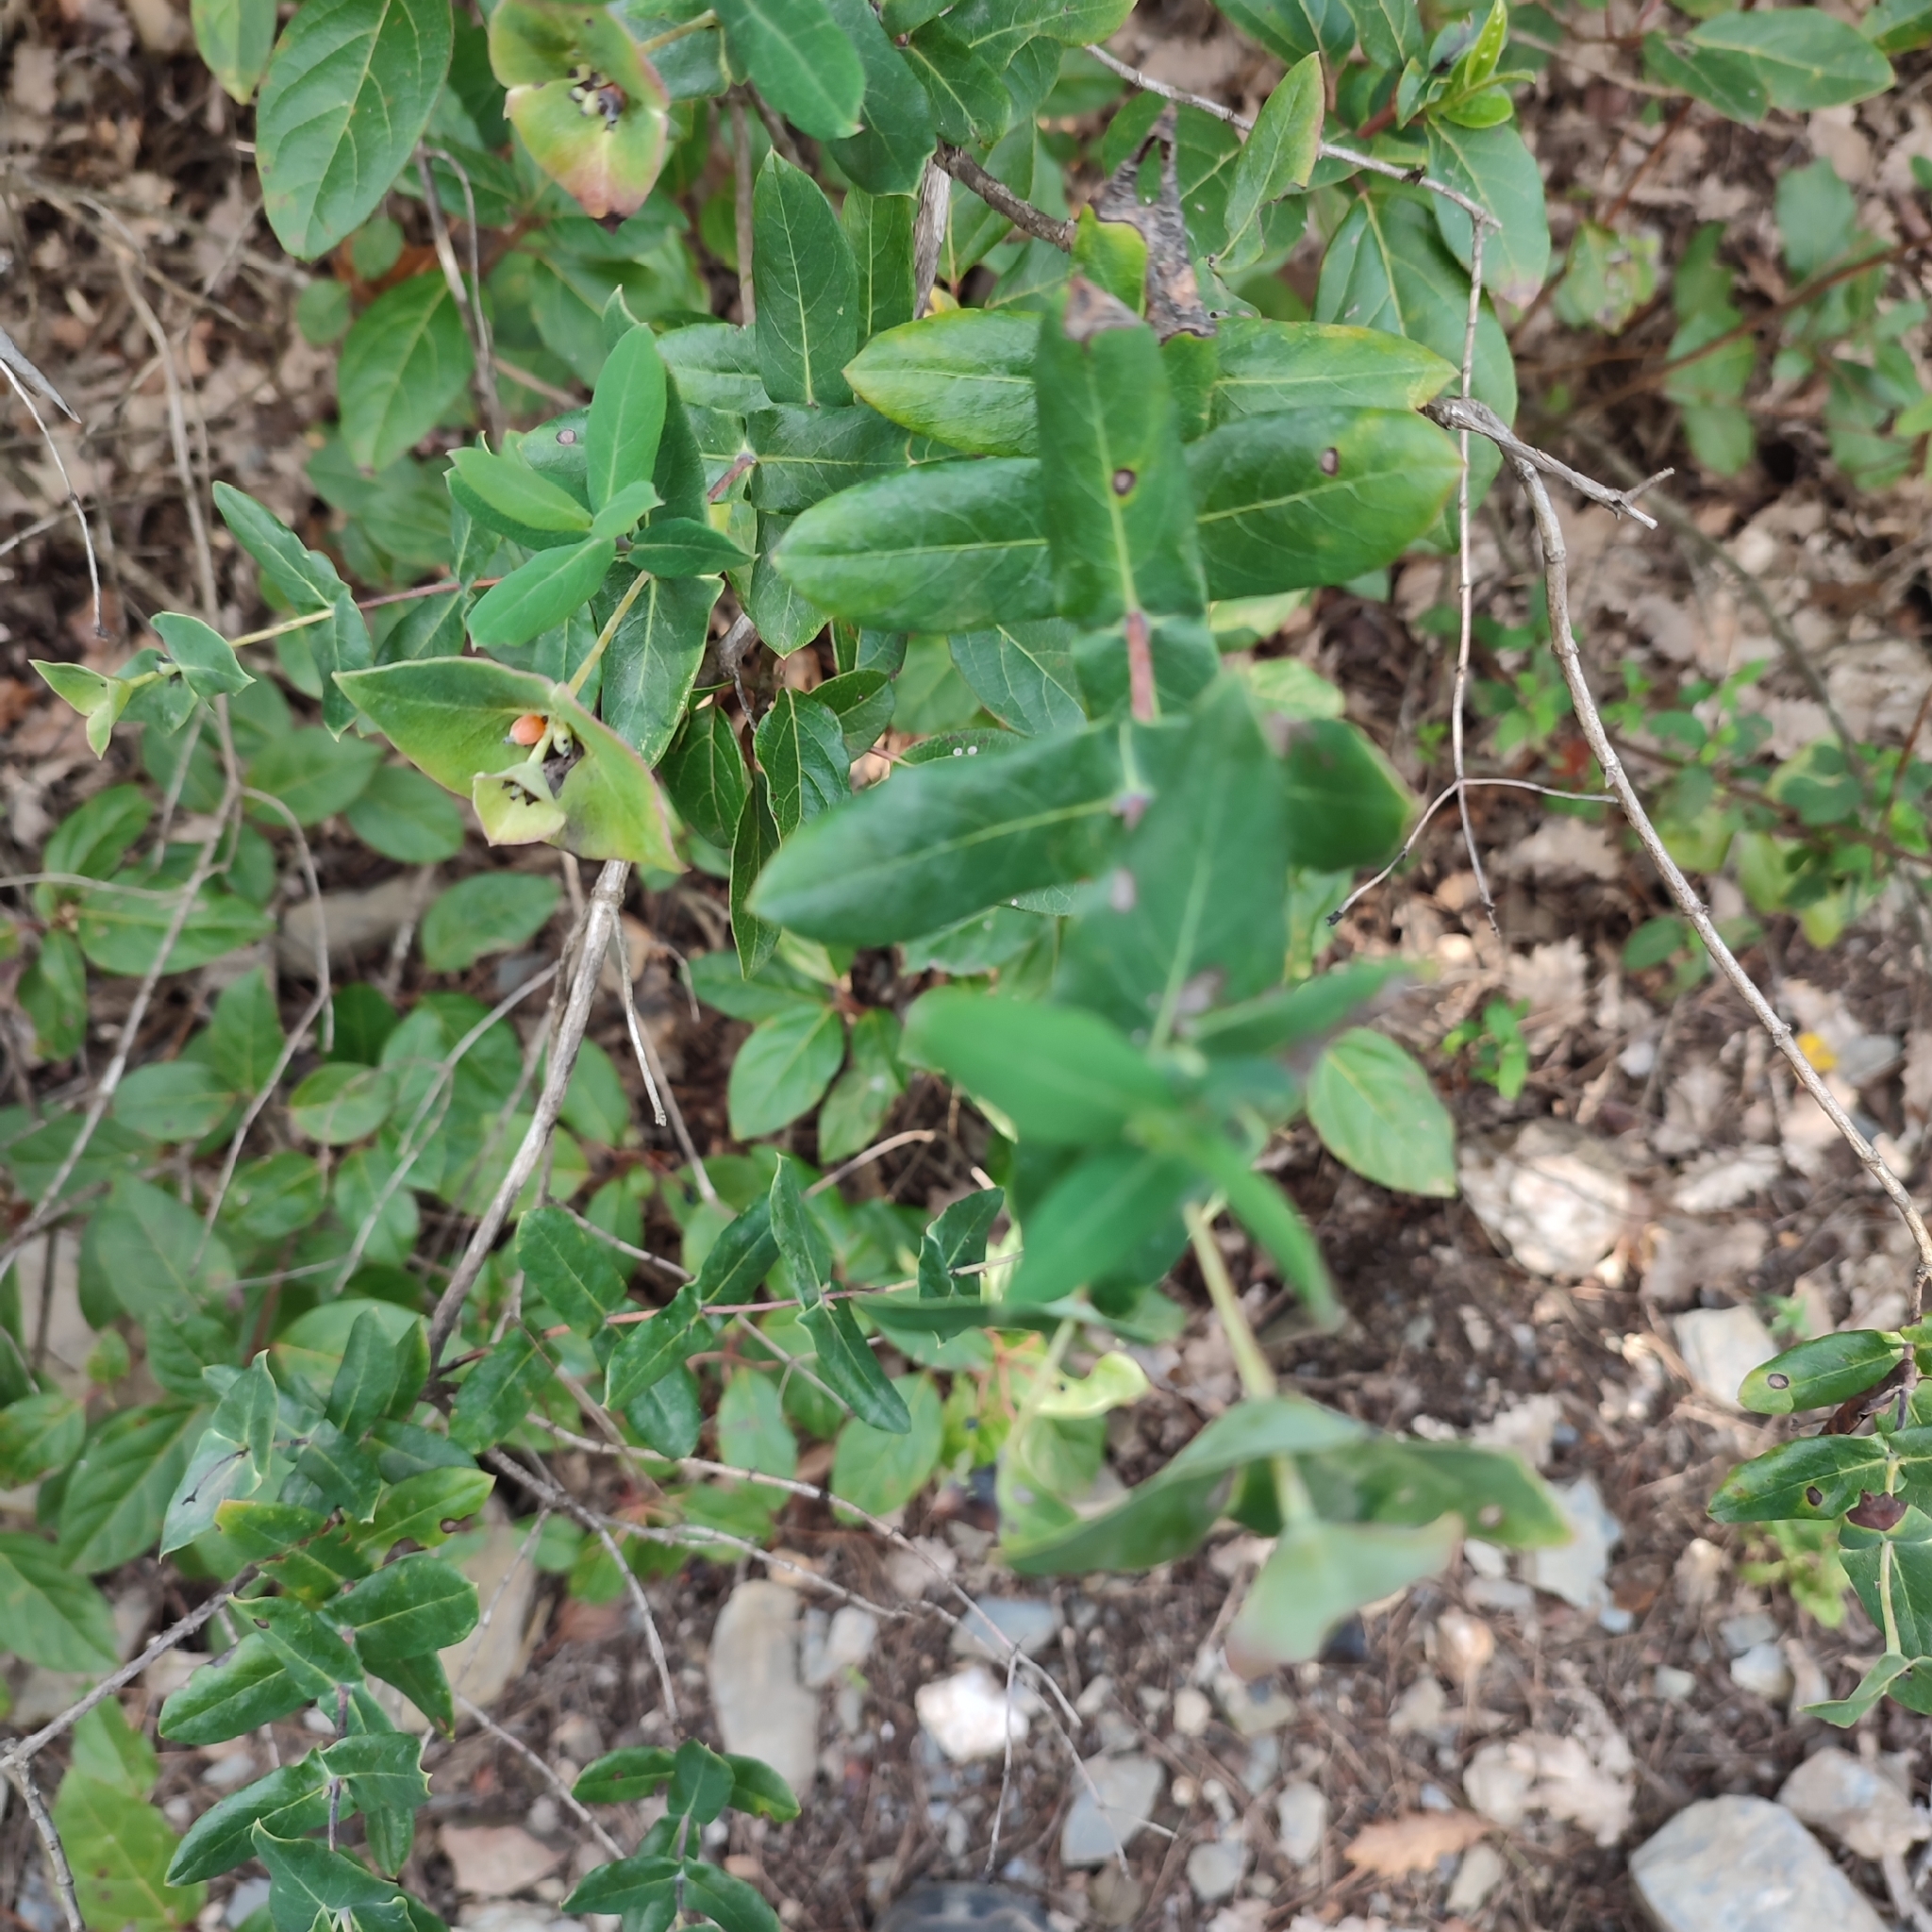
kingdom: Plantae
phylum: Tracheophyta
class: Magnoliopsida
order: Dipsacales
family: Caprifoliaceae
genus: Lonicera
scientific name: Lonicera implexa
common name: Minorca honeysuckle
